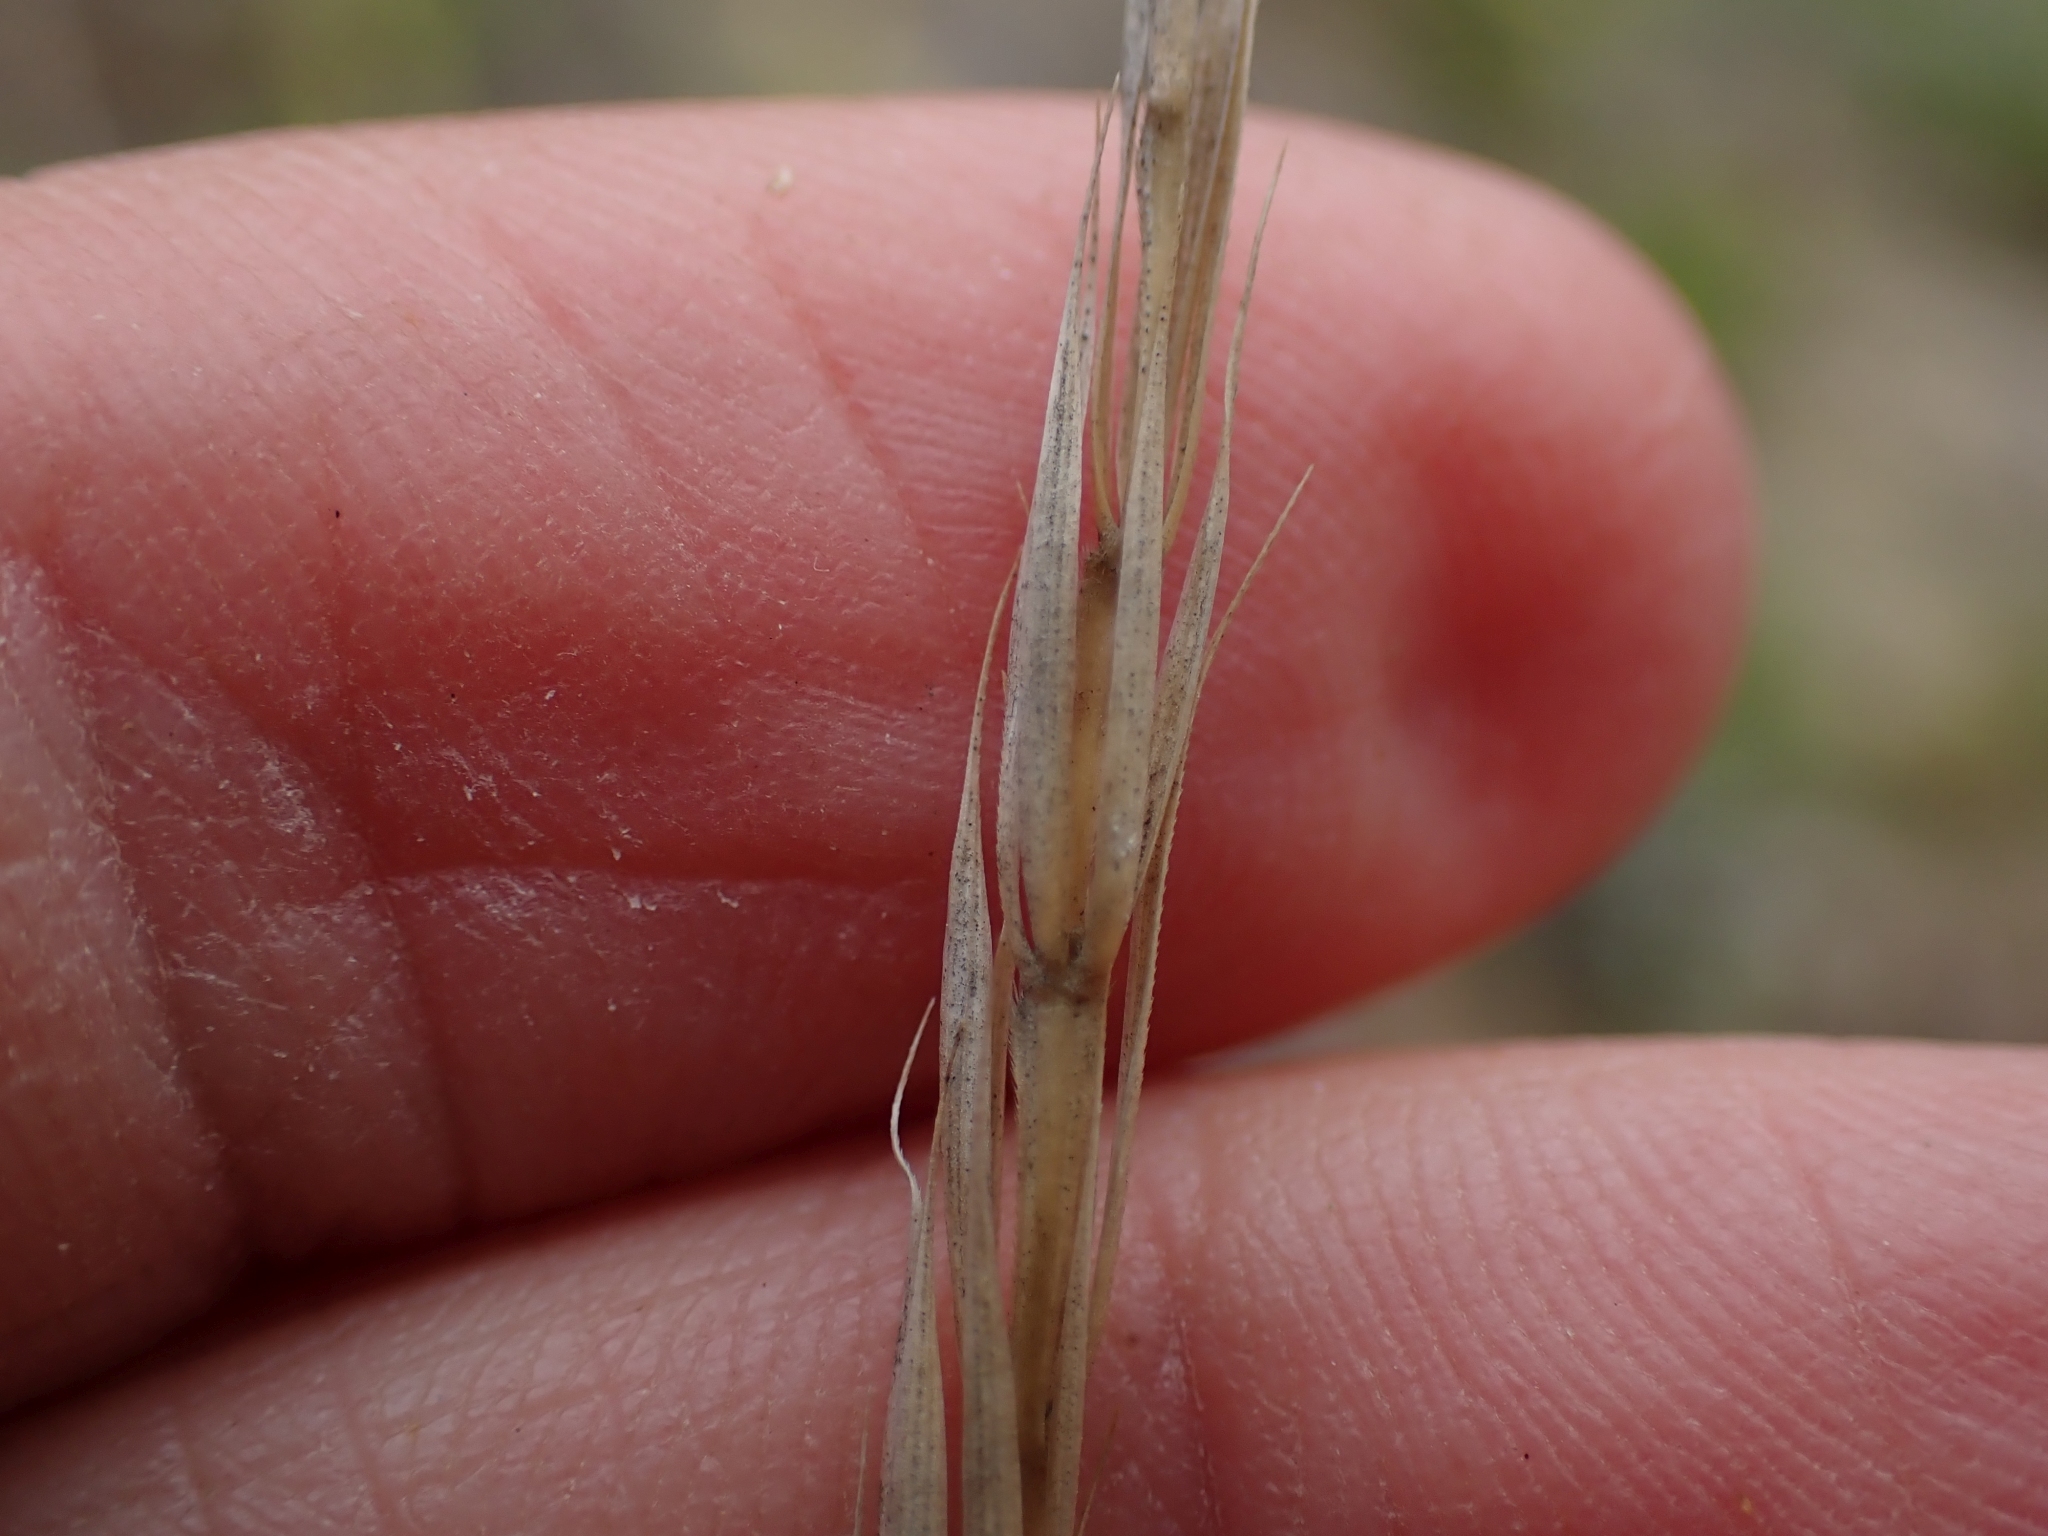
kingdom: Plantae
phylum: Tracheophyta
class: Liliopsida
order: Poales
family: Poaceae
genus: Elymus
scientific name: Elymus glaucus
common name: Blue wild rye
